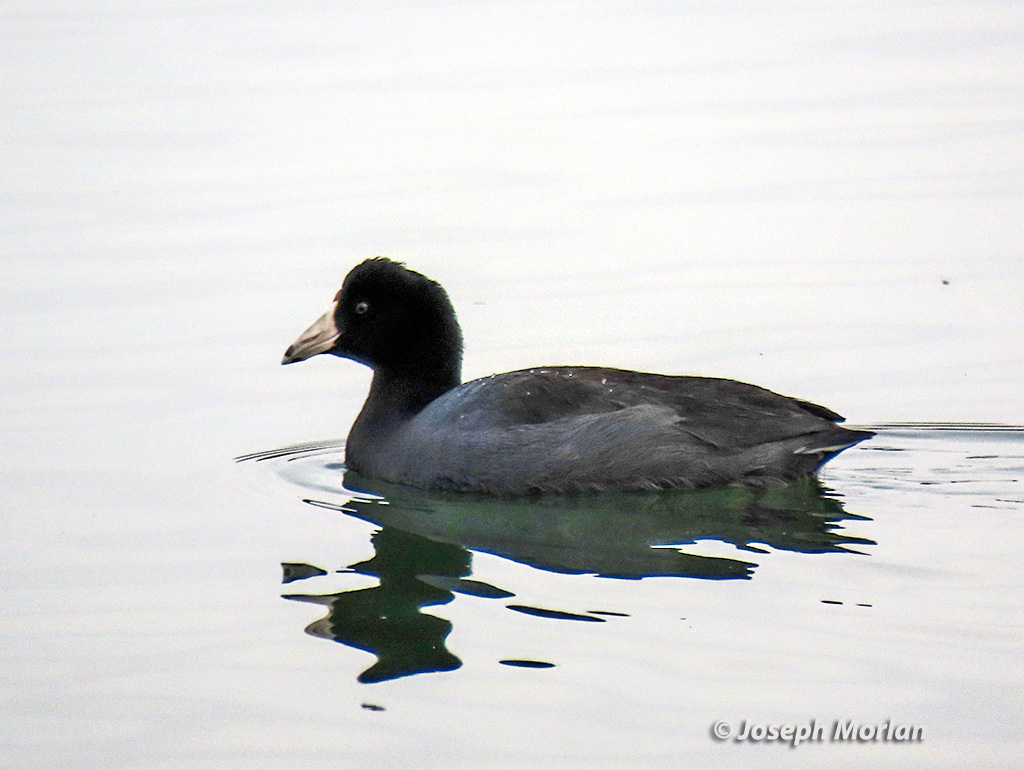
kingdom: Animalia
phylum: Chordata
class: Aves
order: Gruiformes
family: Rallidae
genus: Fulica
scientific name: Fulica americana
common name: American coot
